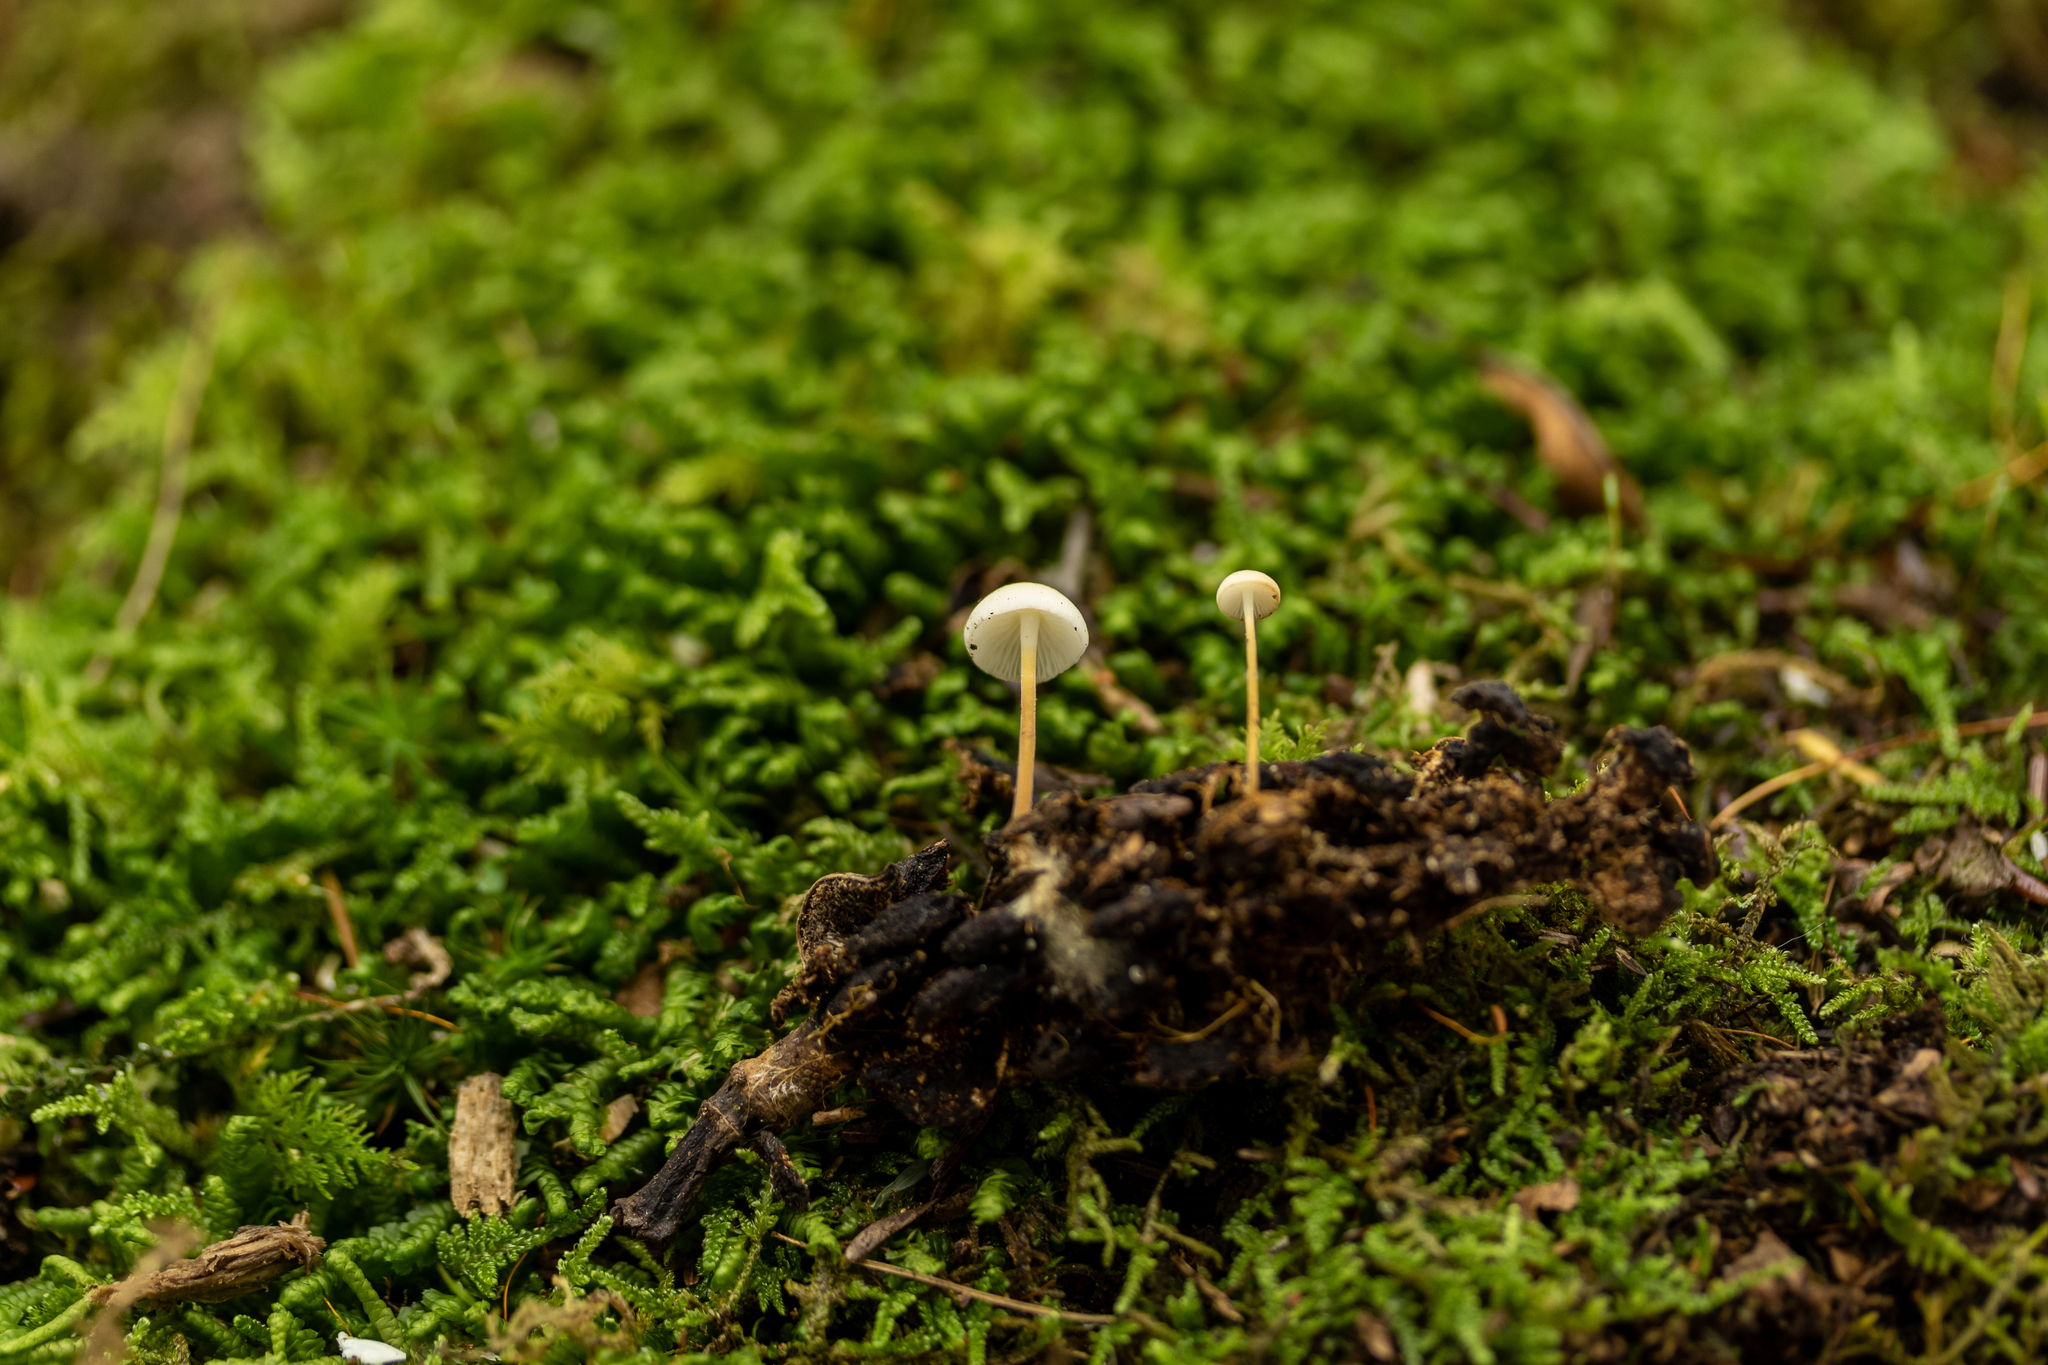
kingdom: Fungi
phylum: Basidiomycota
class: Agaricomycetes
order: Agaricales
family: Physalacriaceae
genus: Strobilurus
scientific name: Strobilurus conigenoides
